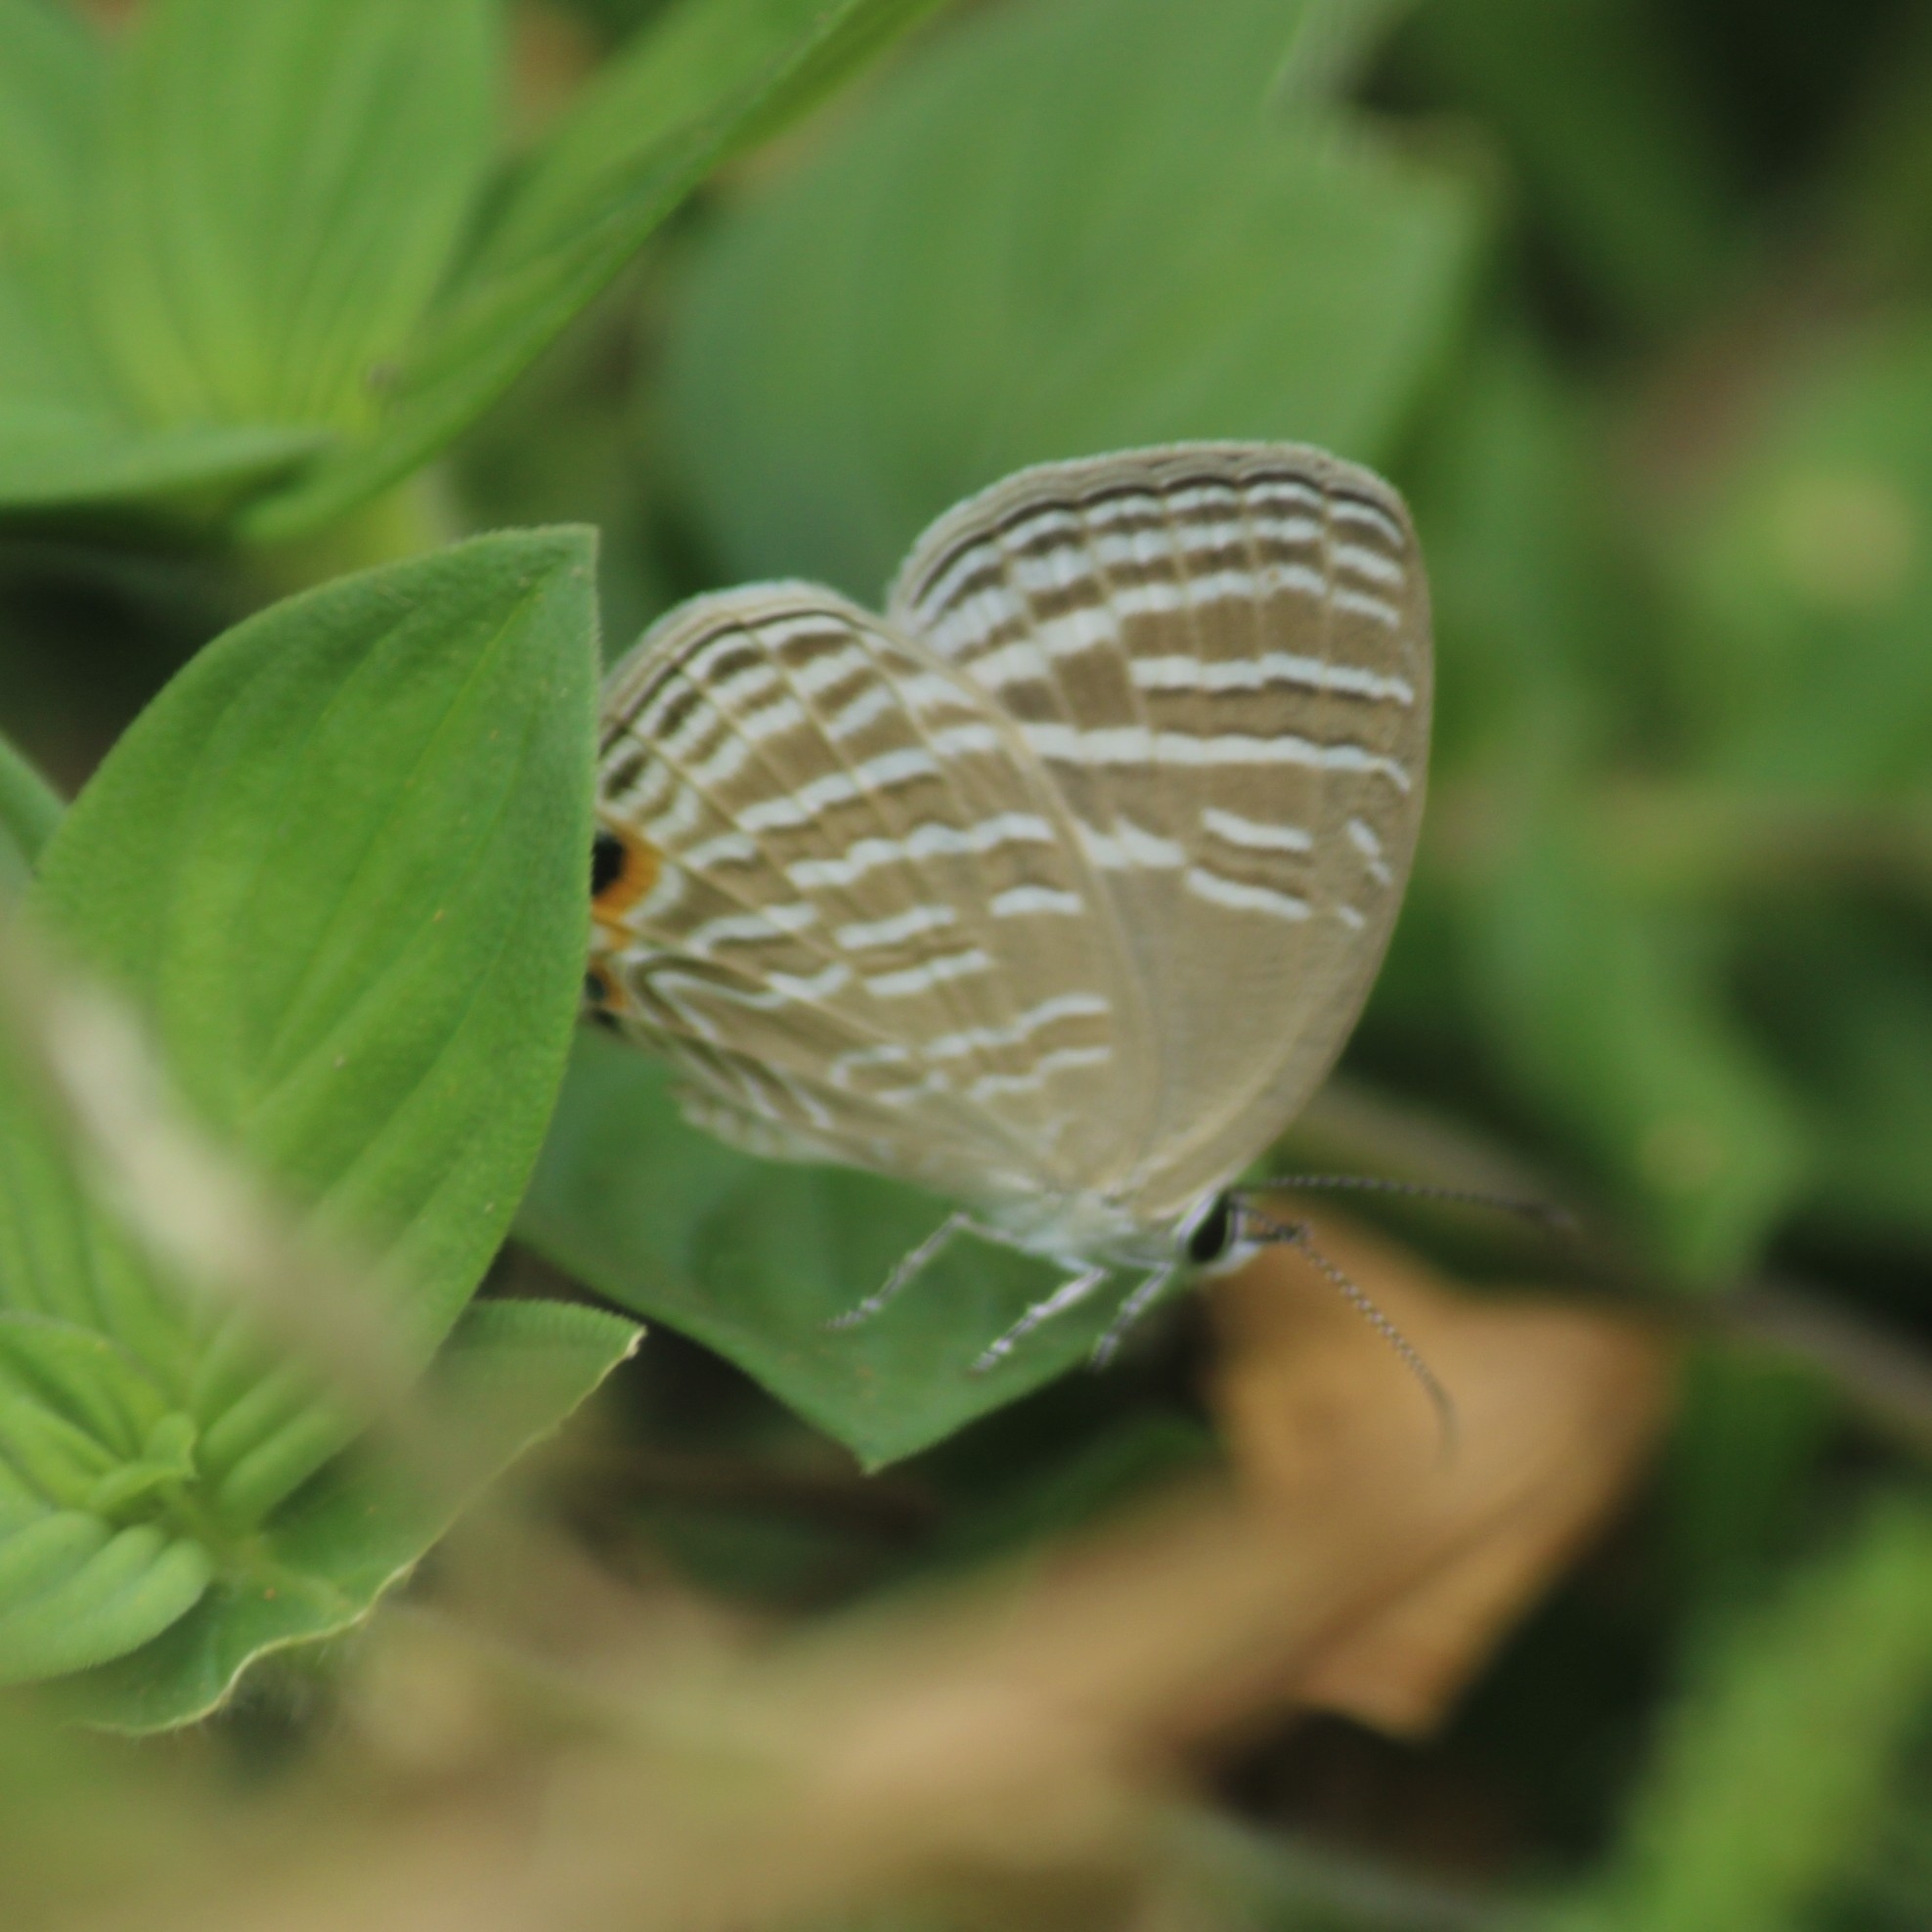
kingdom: Animalia
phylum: Arthropoda
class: Insecta
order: Lepidoptera
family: Lycaenidae
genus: Jamides
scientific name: Jamides celeno
